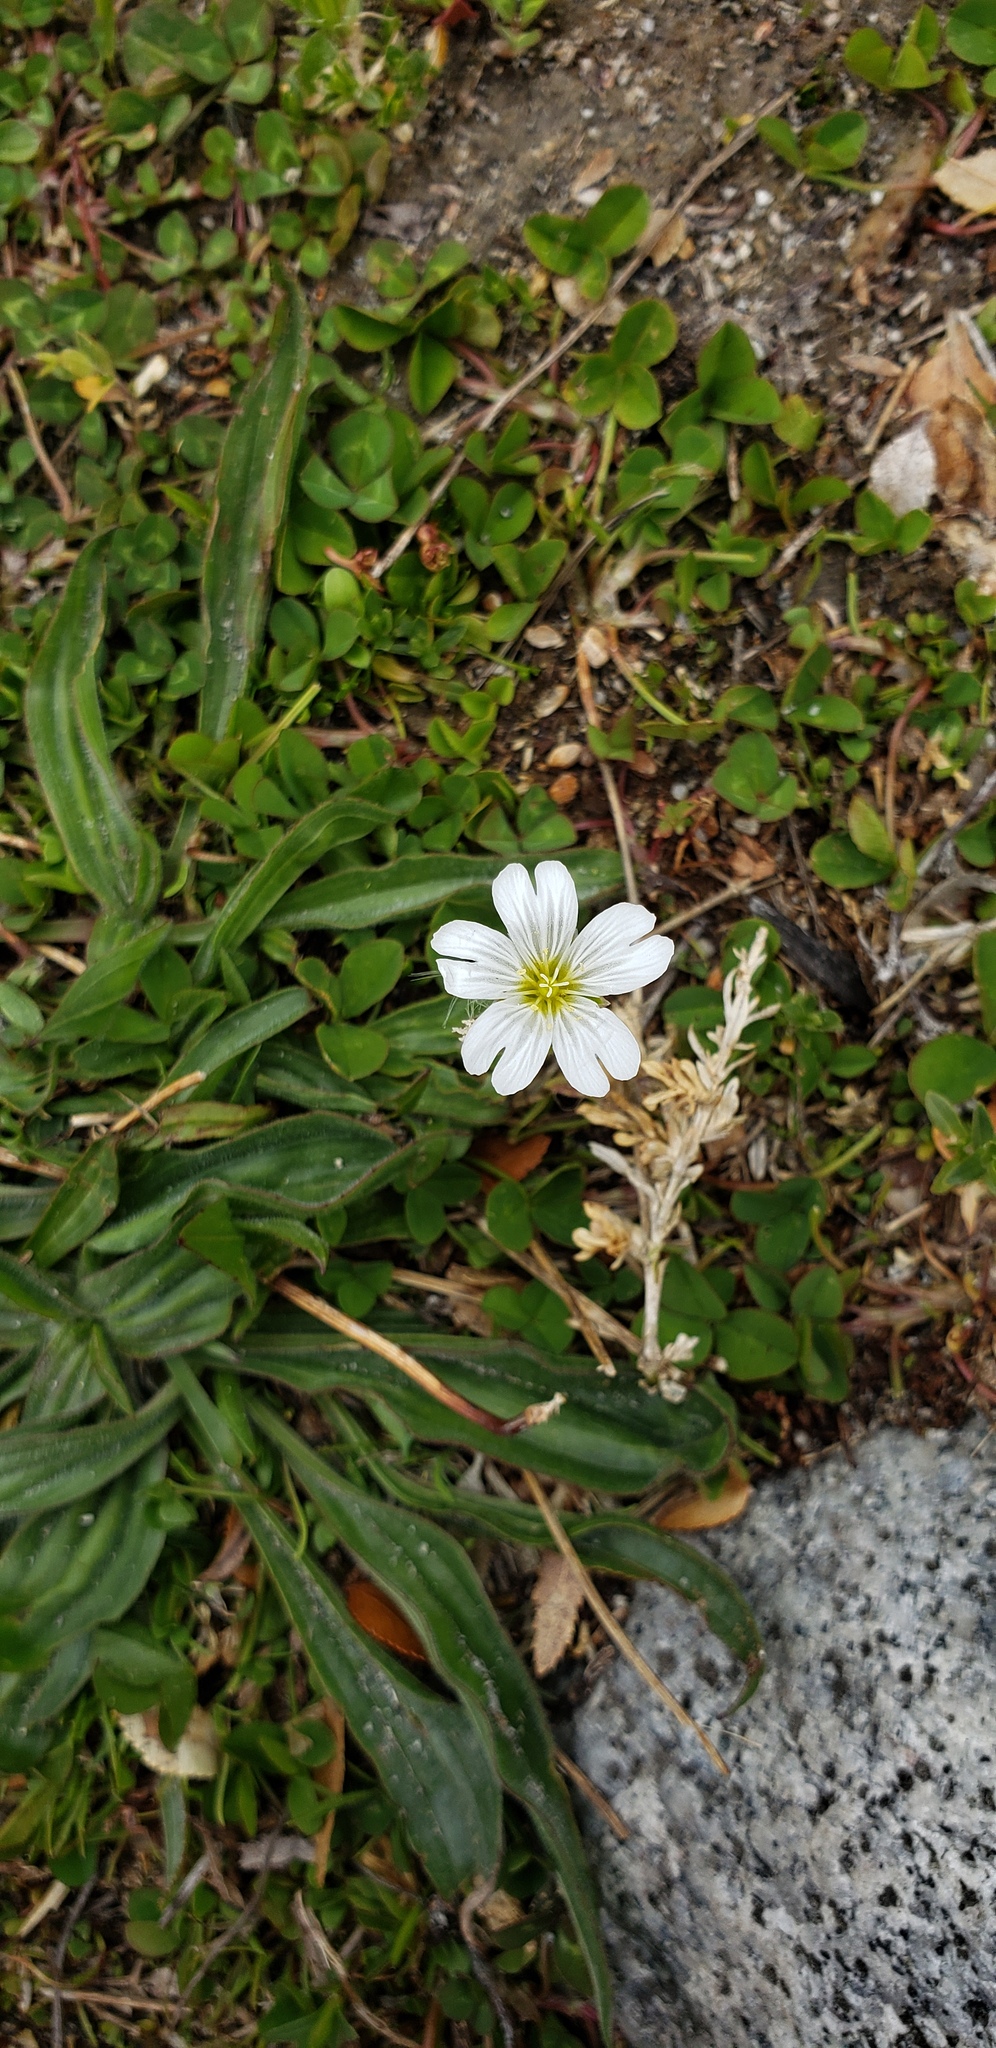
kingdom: Plantae
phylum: Tracheophyta
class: Magnoliopsida
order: Caryophyllales
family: Caryophyllaceae
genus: Cerastium
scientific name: Cerastium arvense
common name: Field mouse-ear
